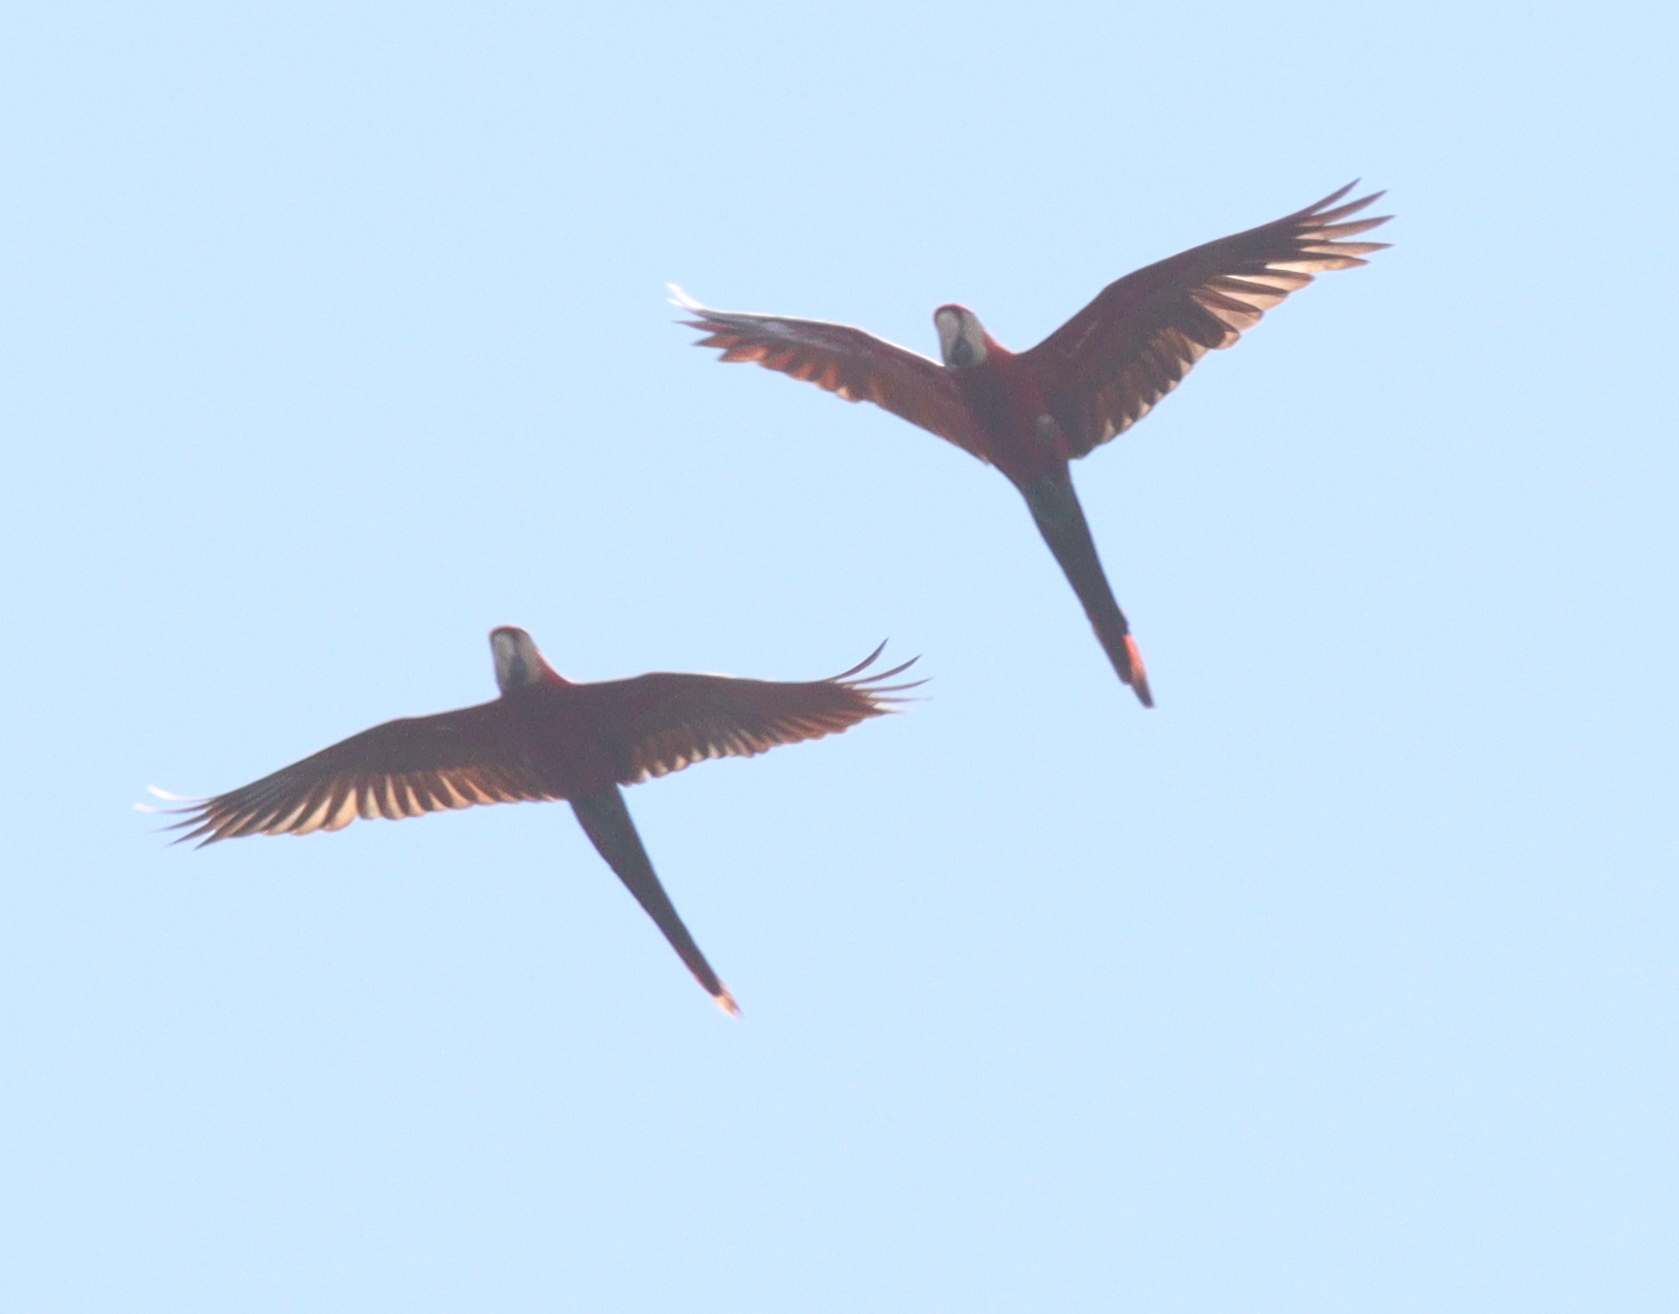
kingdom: Animalia
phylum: Chordata
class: Aves
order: Psittaciformes
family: Psittacidae
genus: Ara
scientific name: Ara chloropterus
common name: Red-and-green macaw
